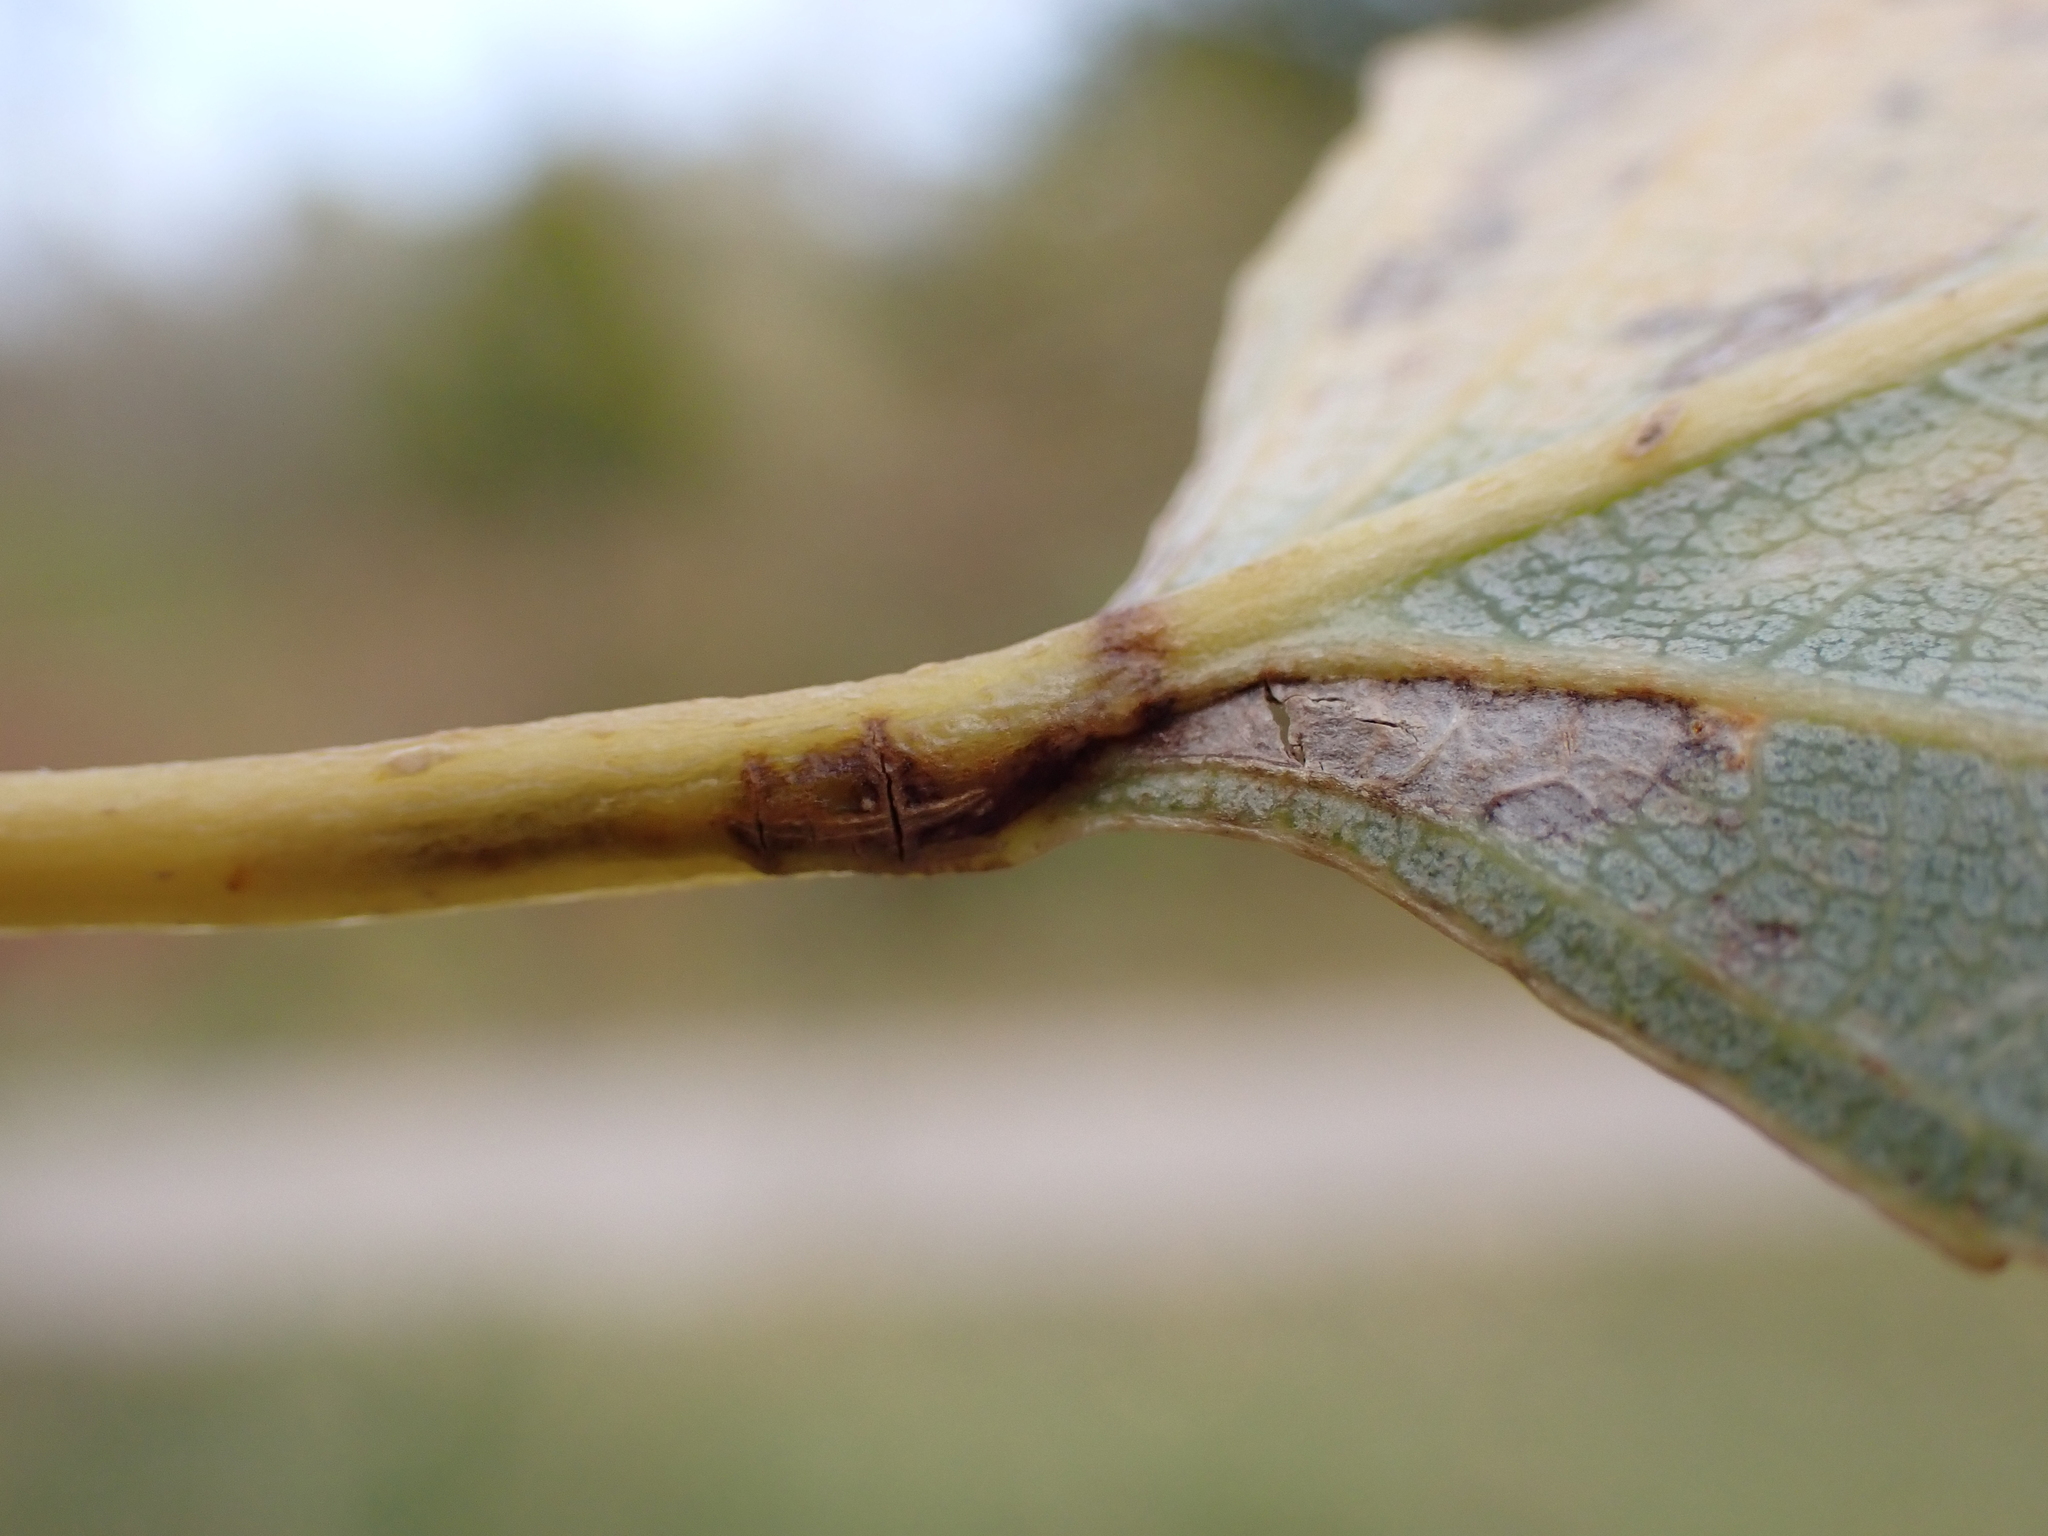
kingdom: Animalia
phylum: Arthropoda
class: Insecta
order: Lepidoptera
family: Nepticulidae
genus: Ectoedemia
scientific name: Ectoedemia hannoverella
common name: New poplar pigmy
